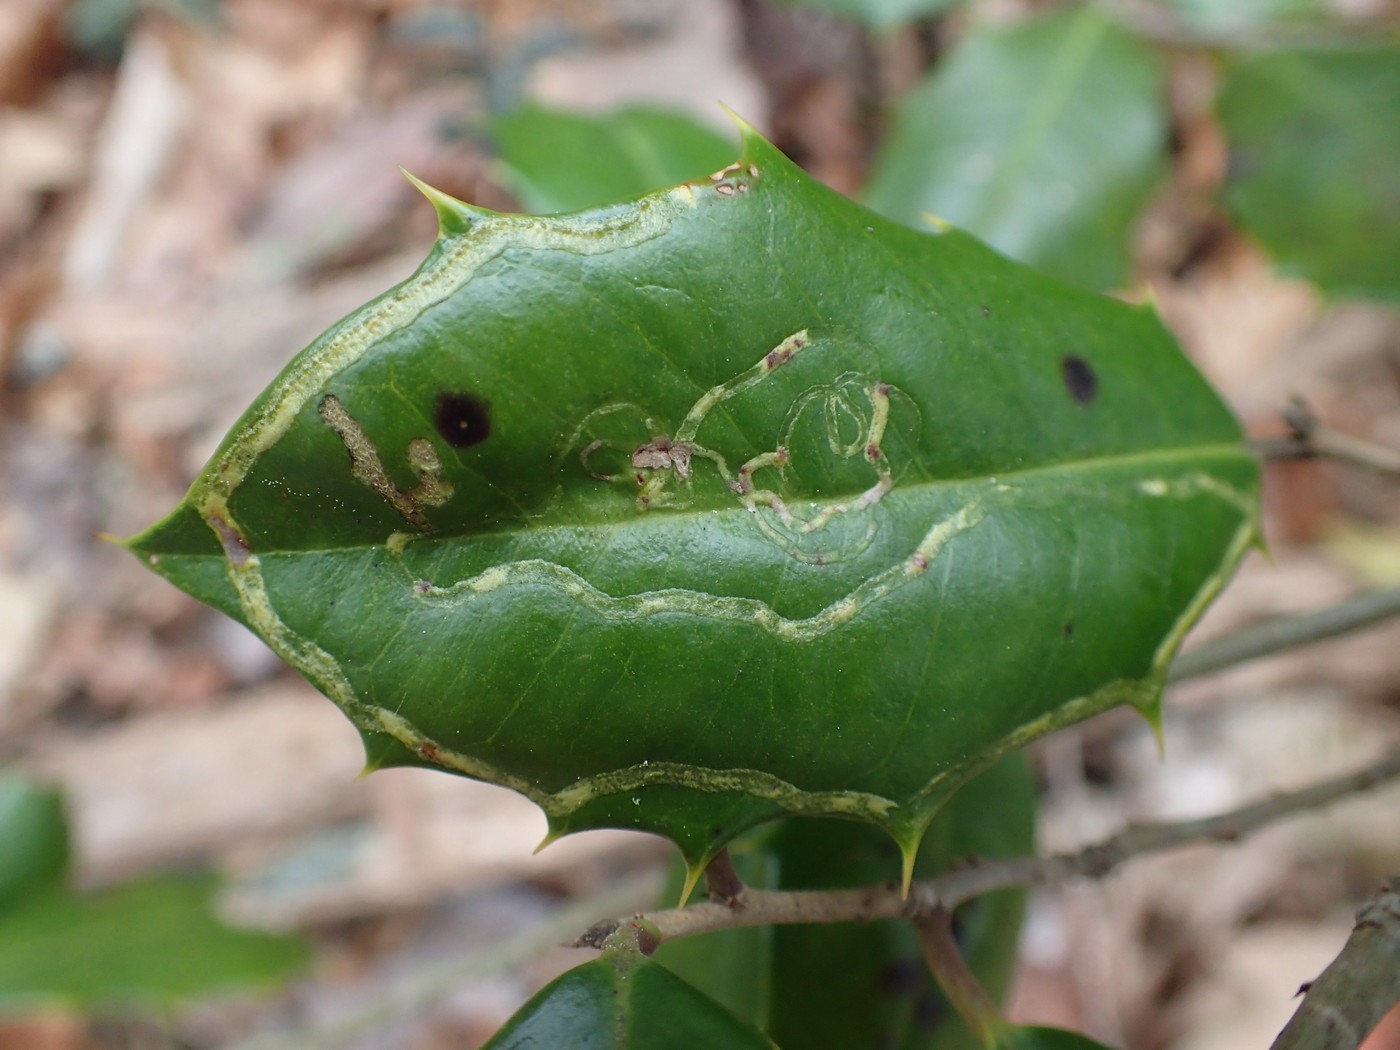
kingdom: Animalia
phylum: Arthropoda
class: Insecta
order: Diptera
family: Agromyzidae
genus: Phytomyza
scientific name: Phytomyza opacae
